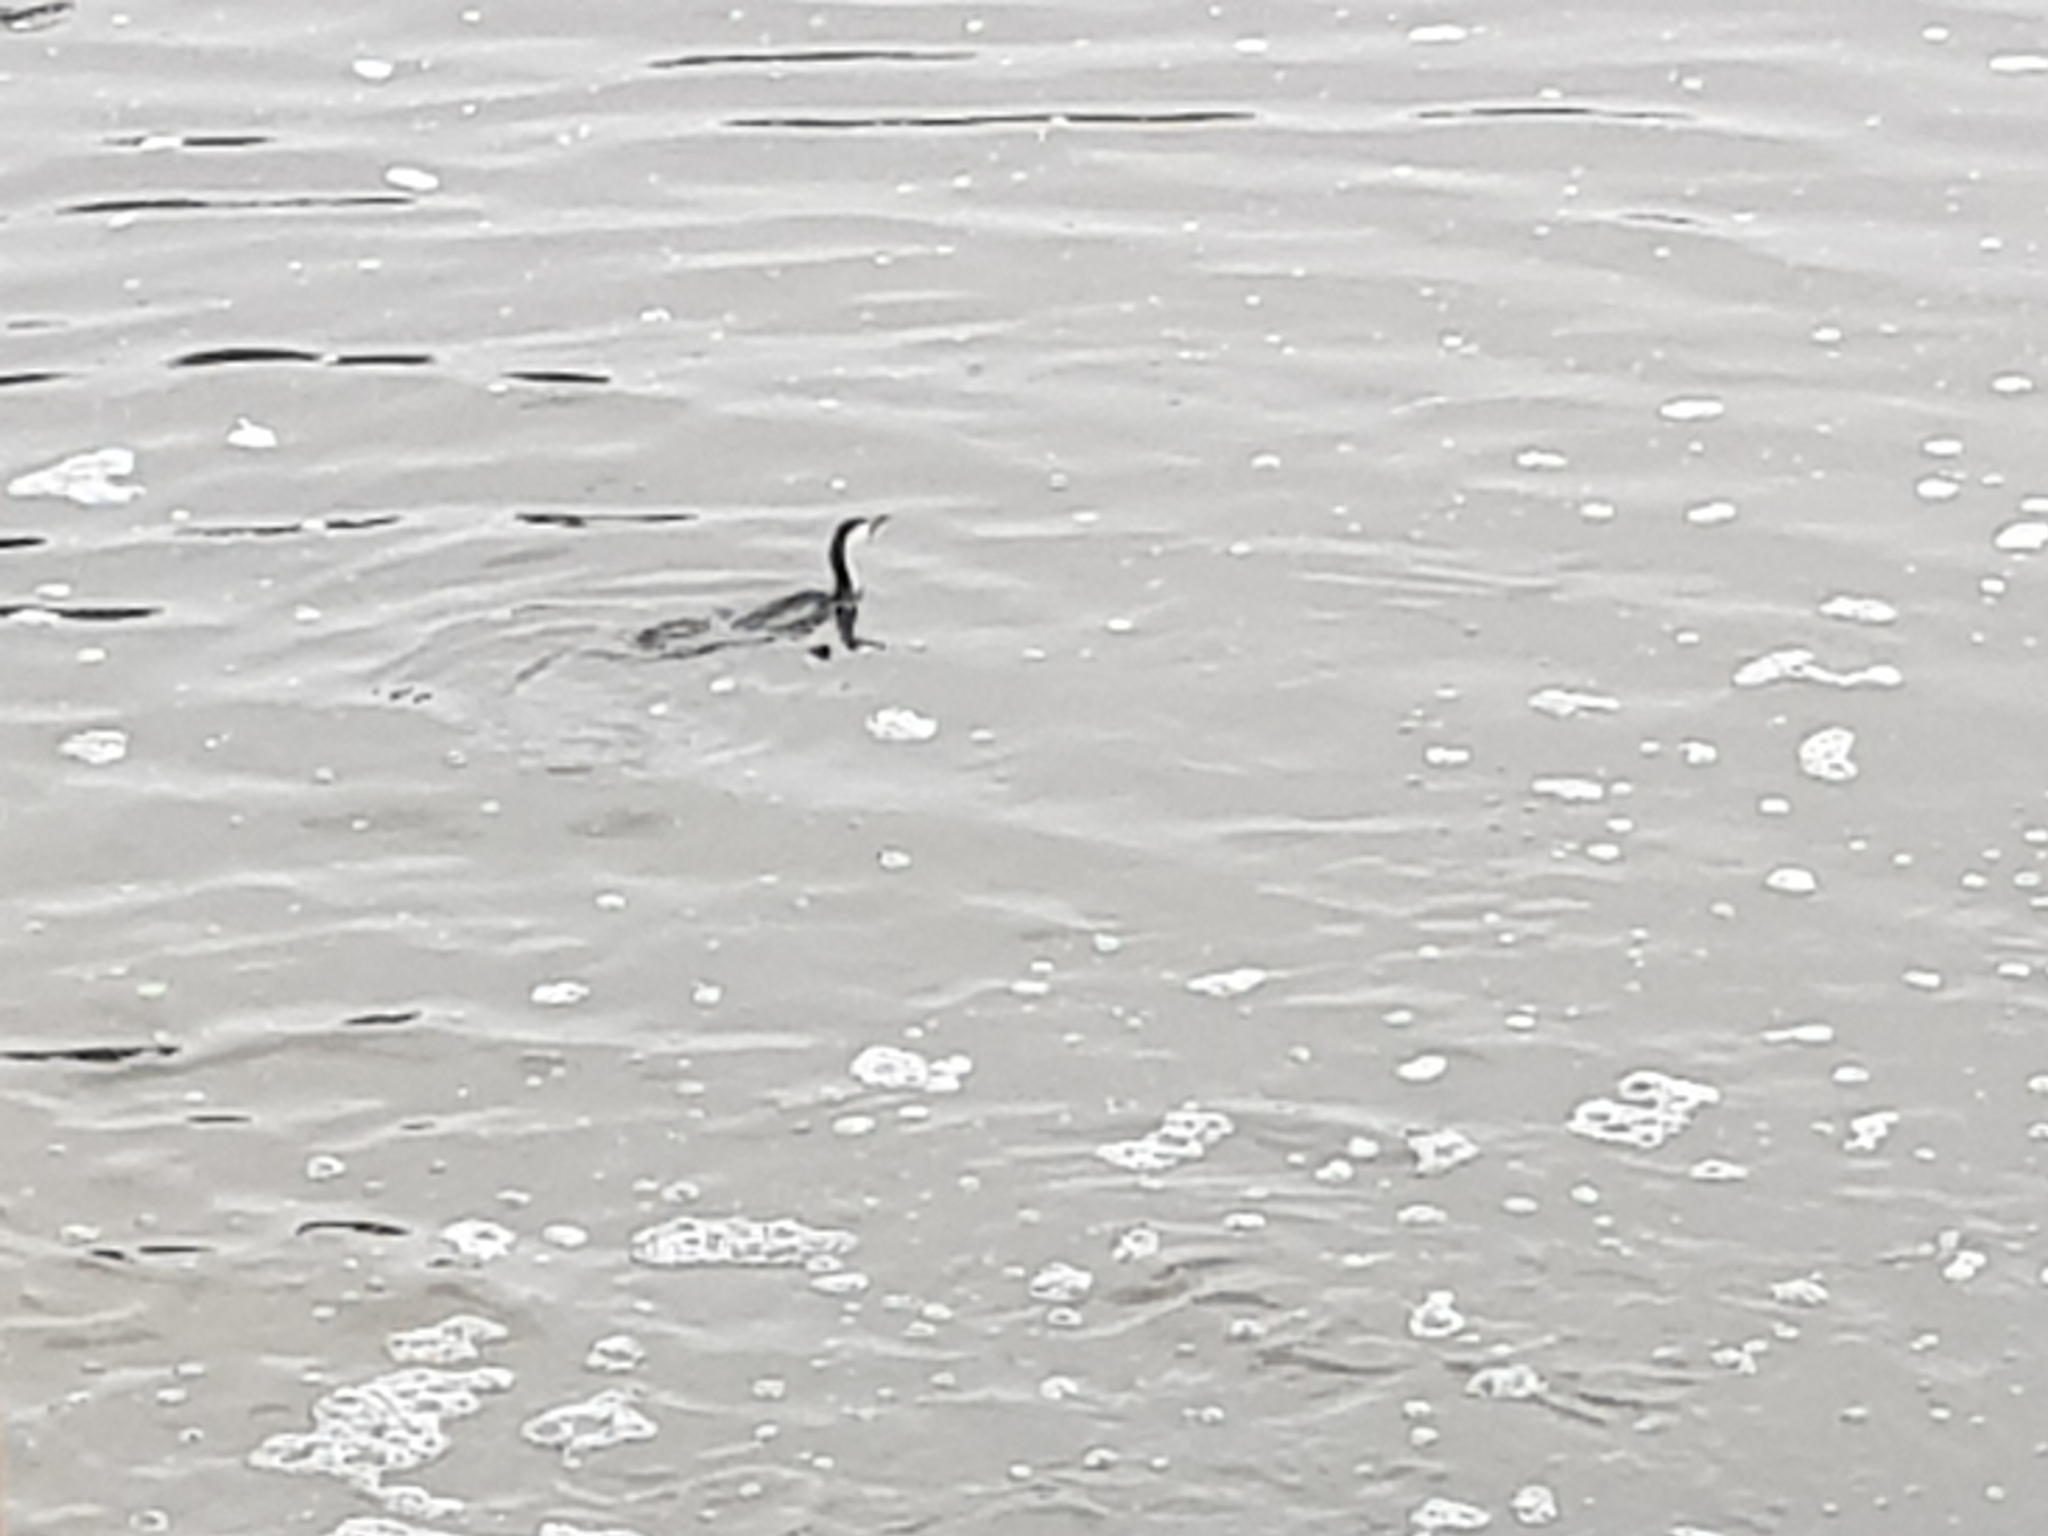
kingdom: Animalia
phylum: Chordata
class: Aves
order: Suliformes
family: Phalacrocoracidae
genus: Microcarbo
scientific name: Microcarbo melanoleucos
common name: Little pied cormorant
